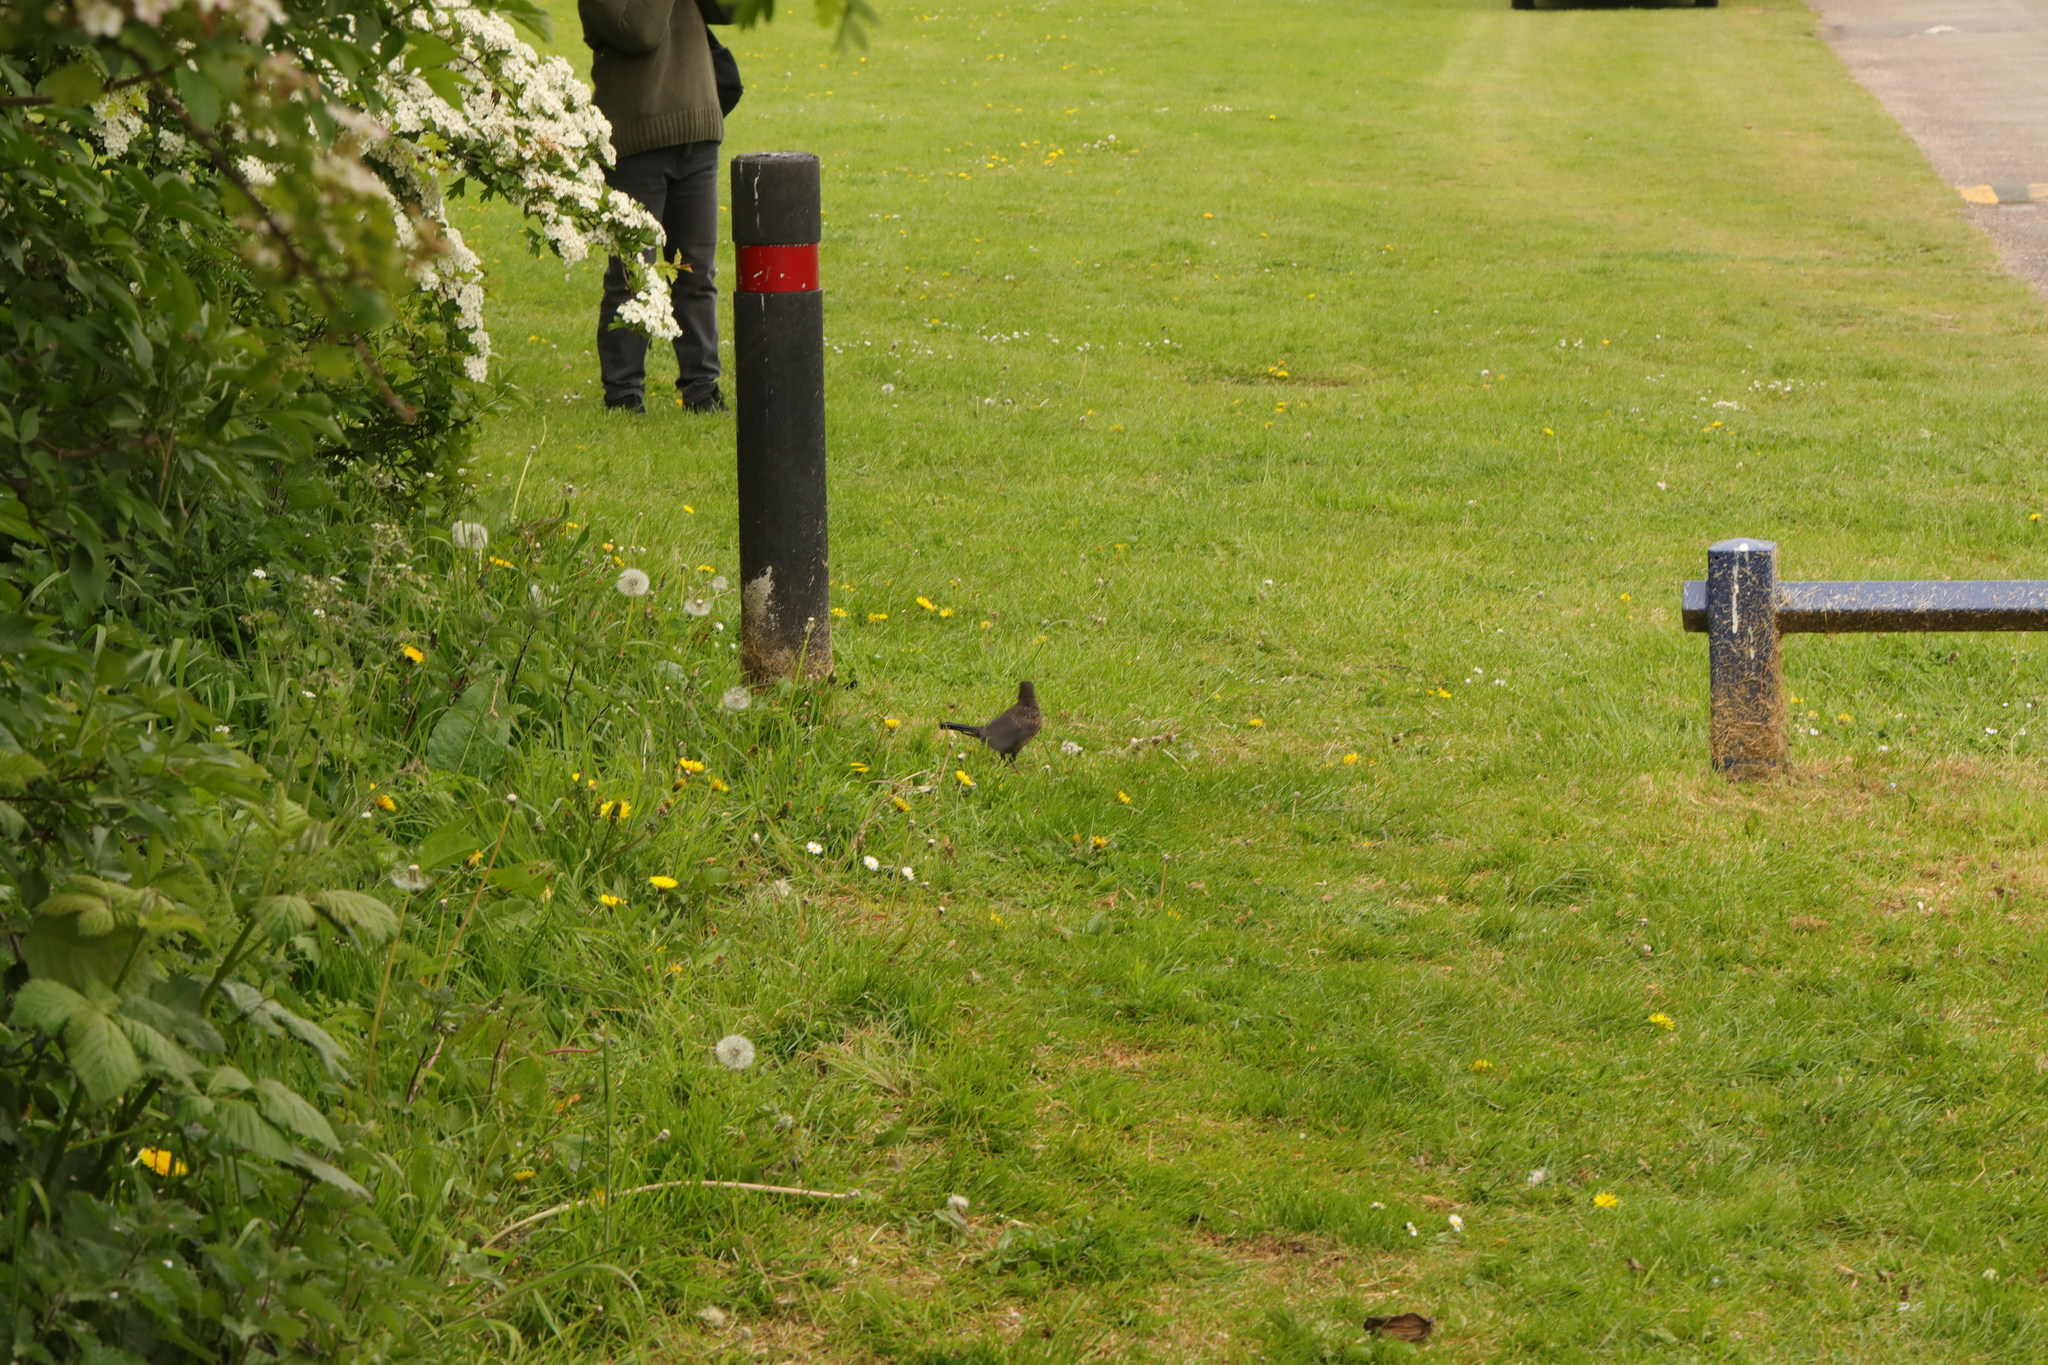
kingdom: Animalia
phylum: Chordata
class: Aves
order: Passeriformes
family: Turdidae
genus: Turdus
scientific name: Turdus merula
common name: Common blackbird
